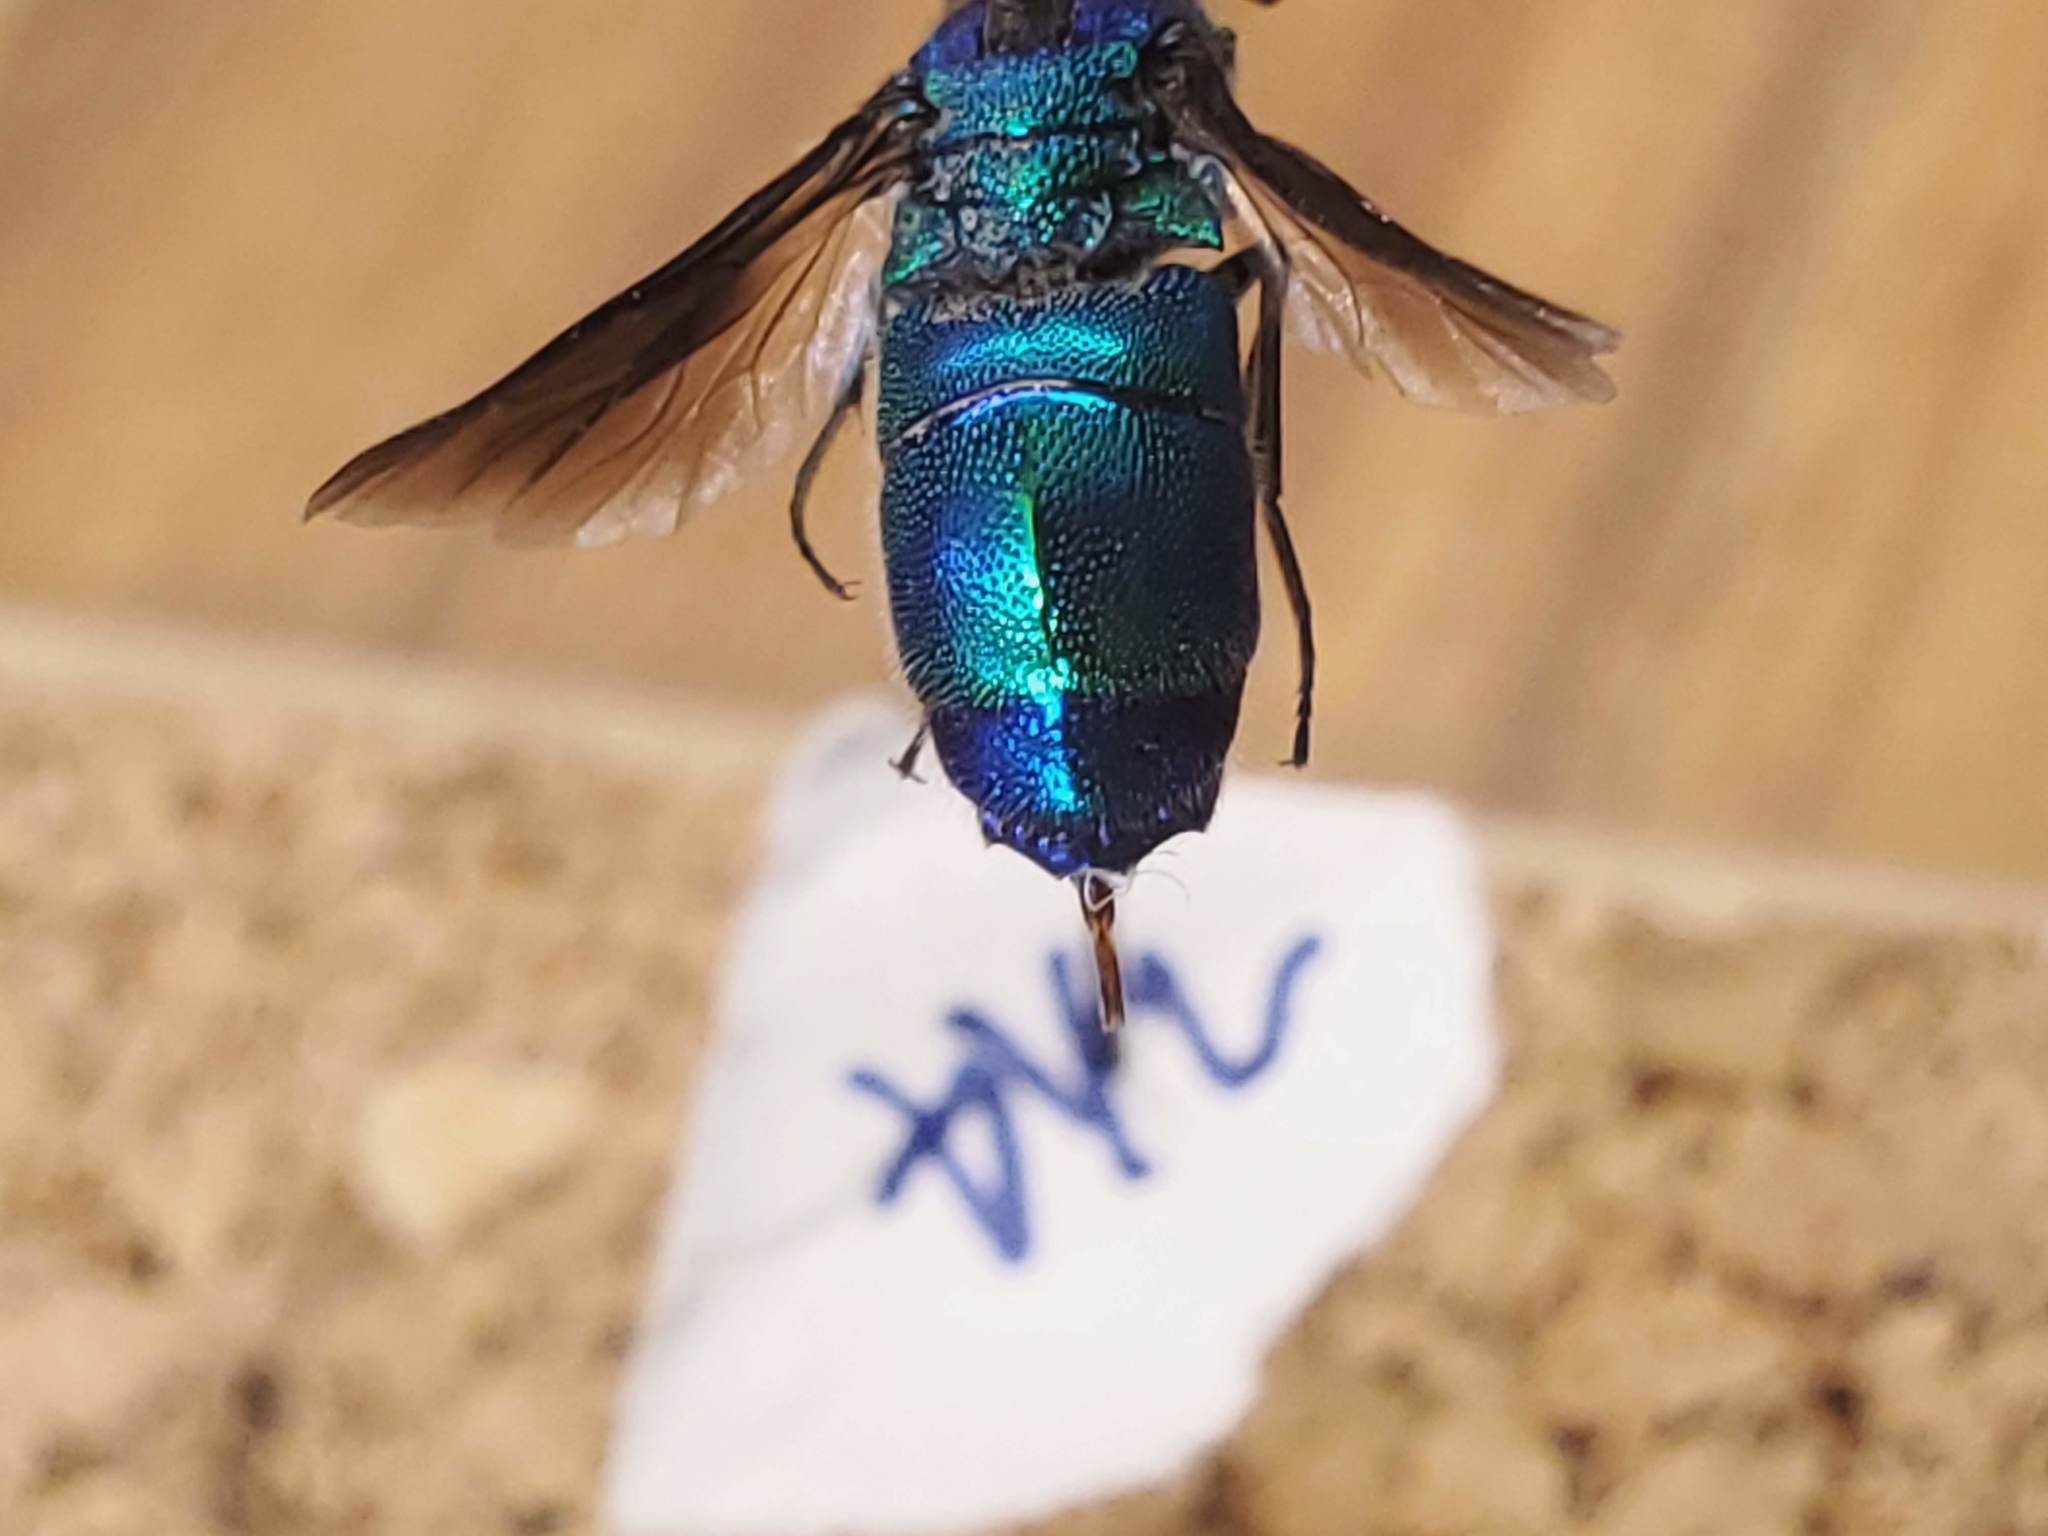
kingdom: Animalia
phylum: Arthropoda
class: Insecta
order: Hymenoptera
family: Chrysididae
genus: Chrysis
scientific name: Chrysis angolensis
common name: Cuckoo wasp
